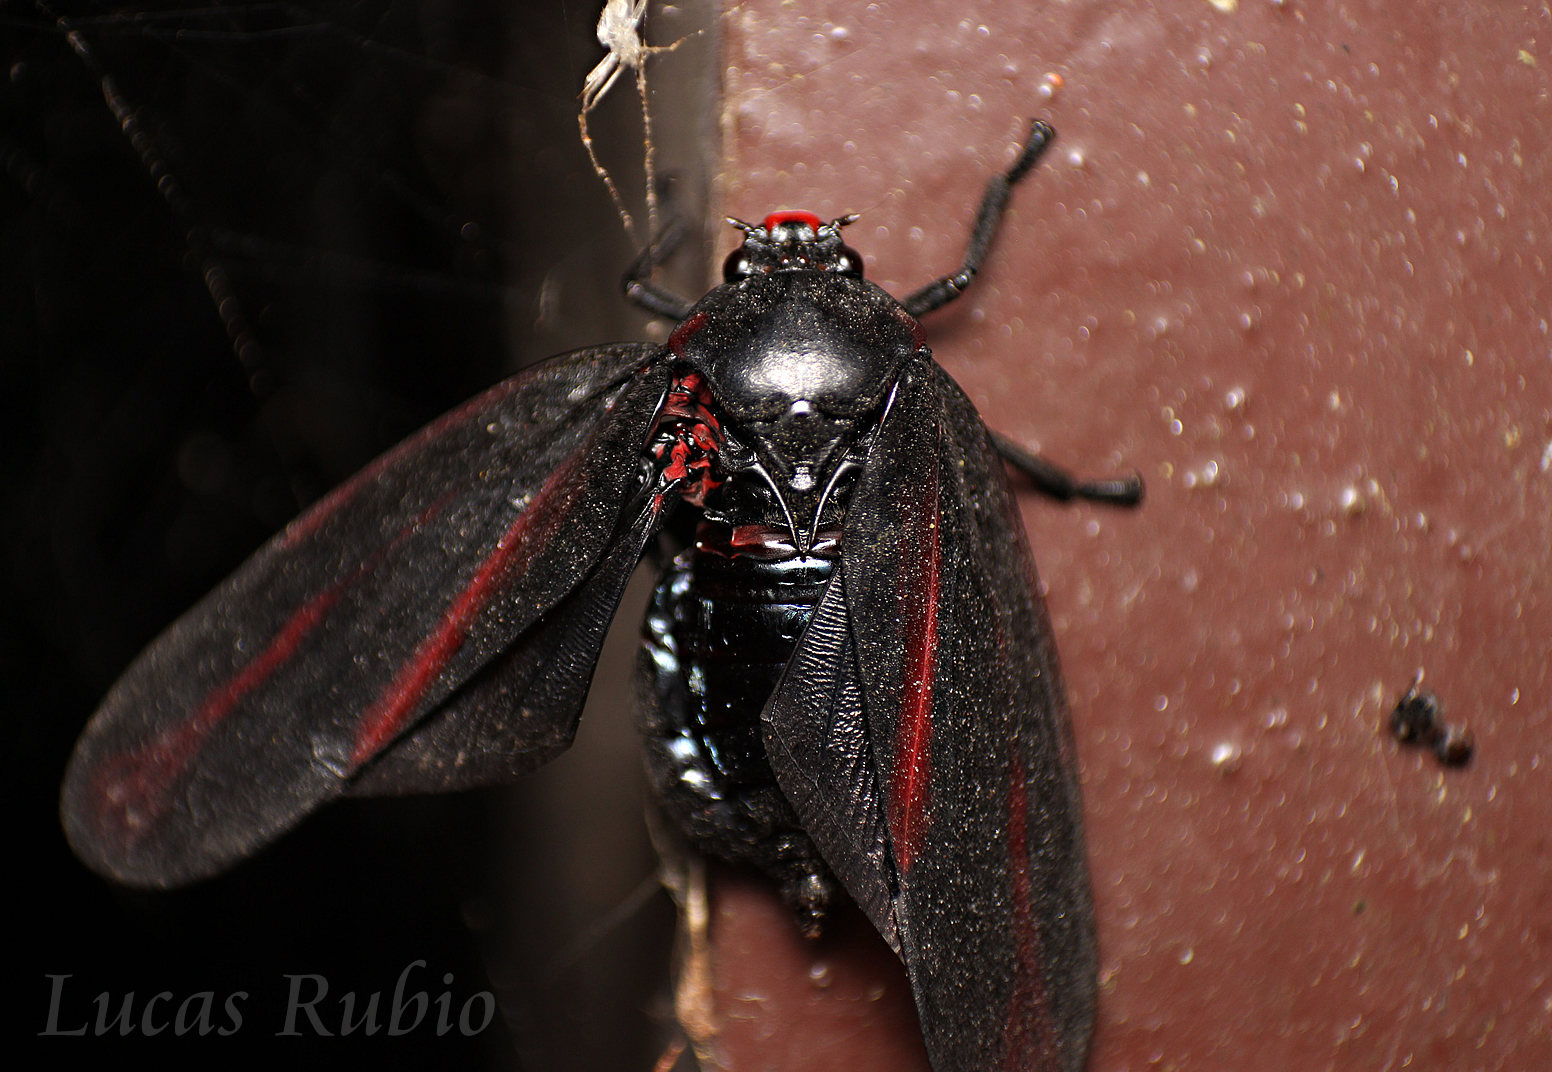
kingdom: Animalia
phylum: Arthropoda
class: Insecta
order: Hemiptera
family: Cercopidae
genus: Tomaspis
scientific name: Tomaspis furcata
